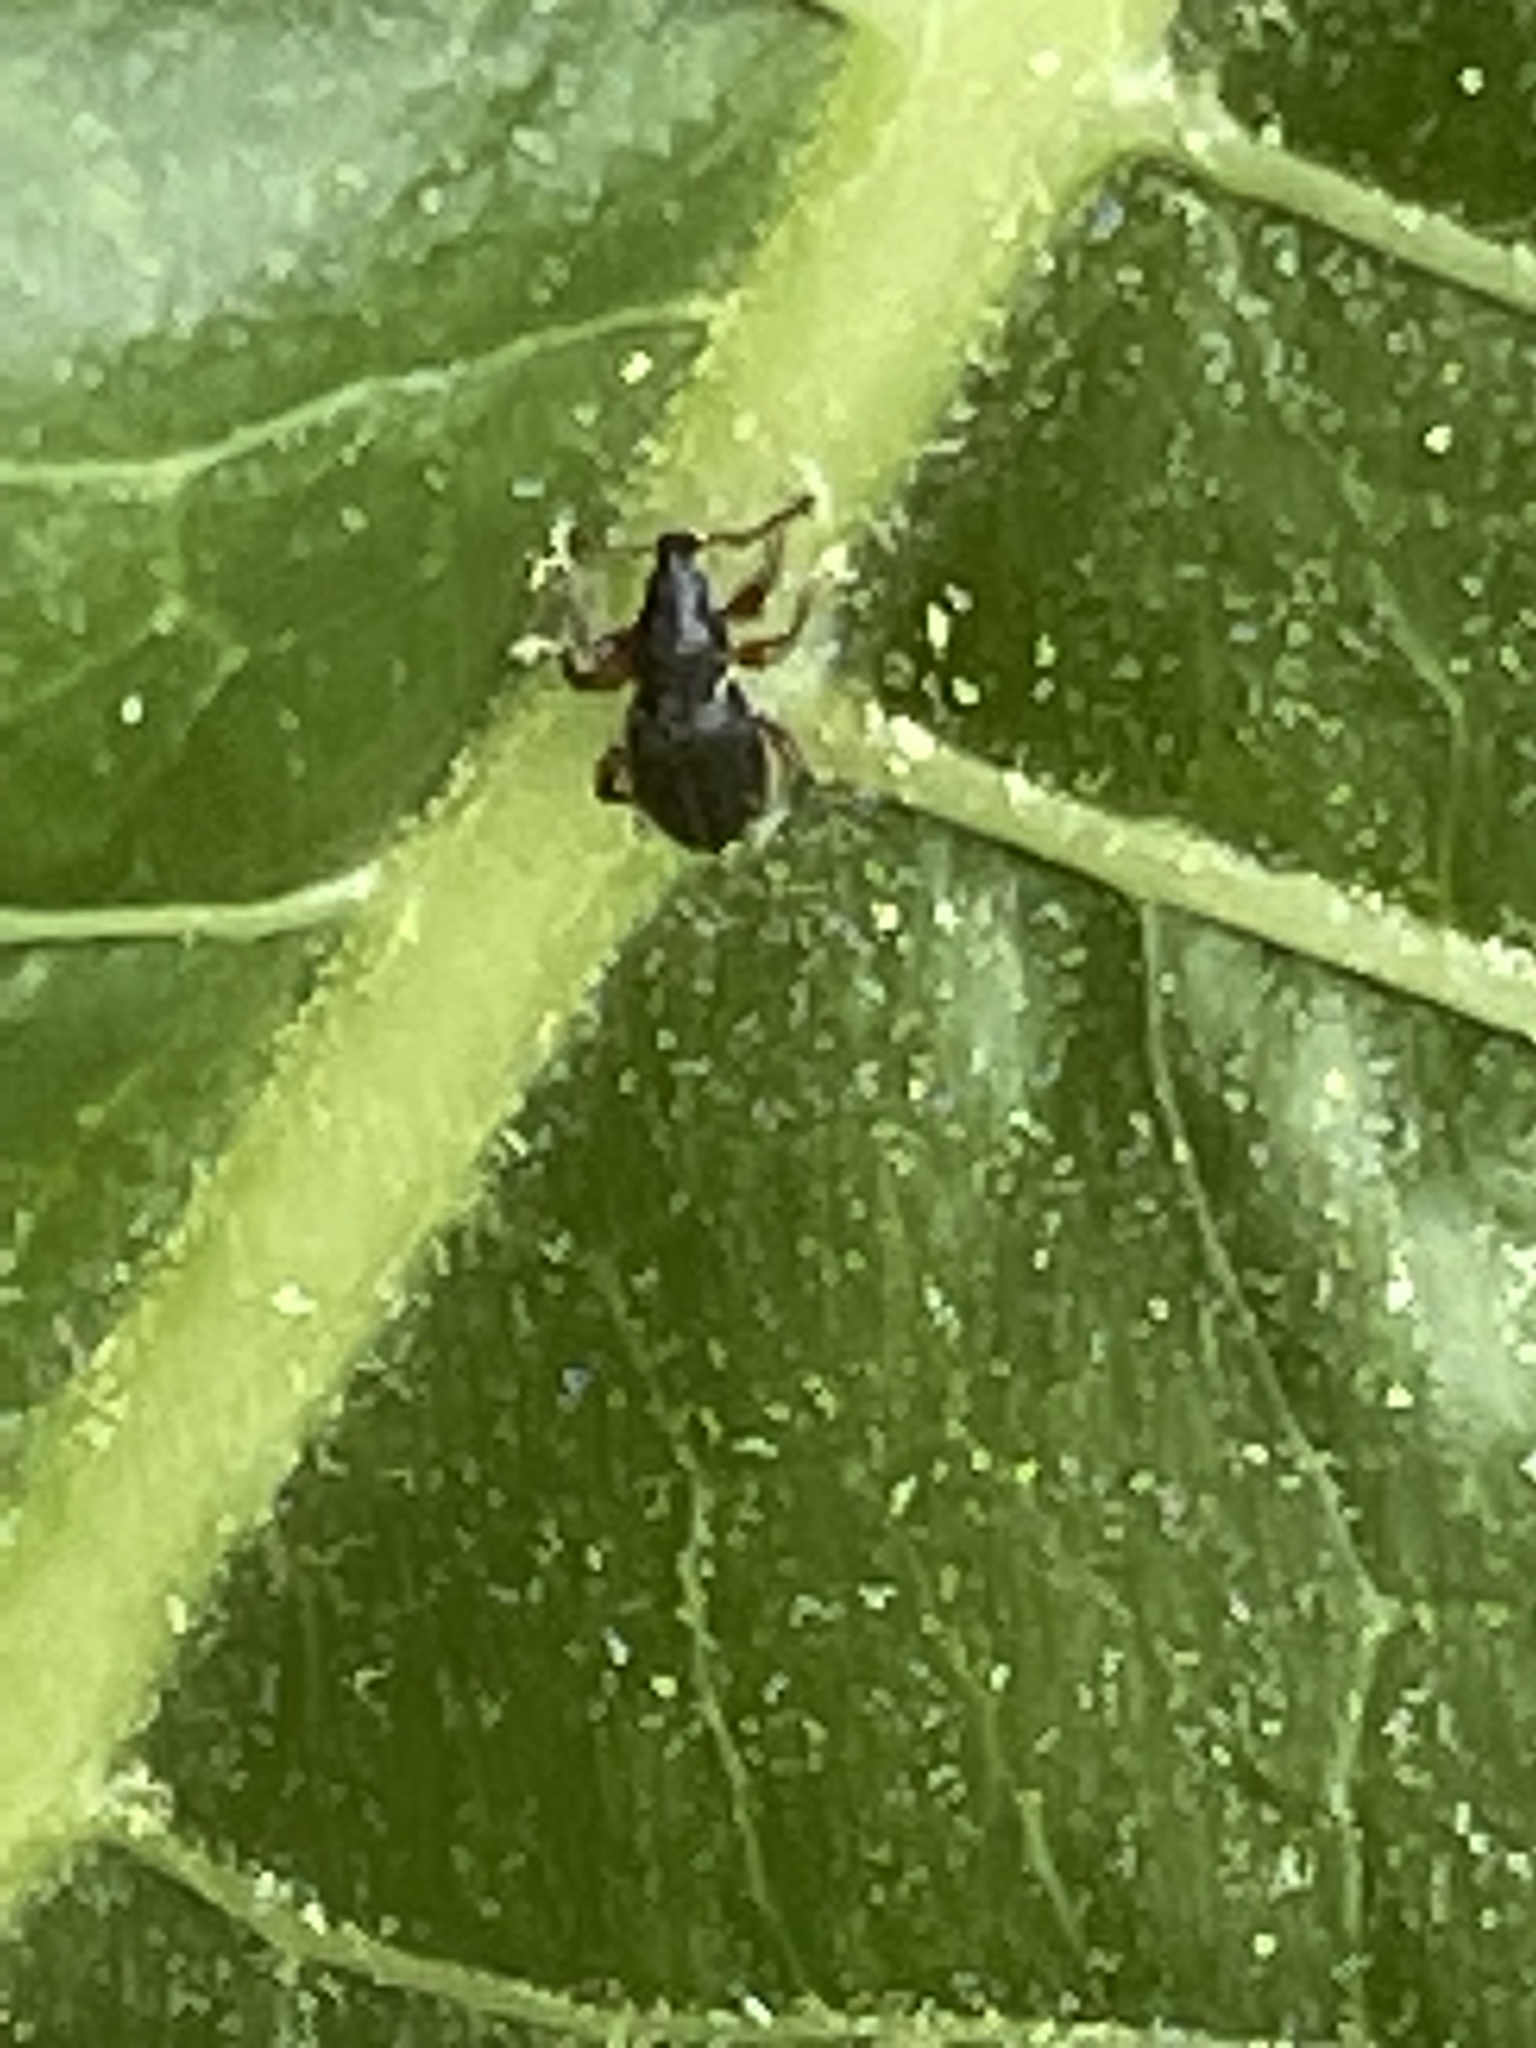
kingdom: Animalia
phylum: Arthropoda
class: Insecta
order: Coleoptera
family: Curculionidae
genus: Exomias
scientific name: Exomias pellucidus
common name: Hairy spider weevil
